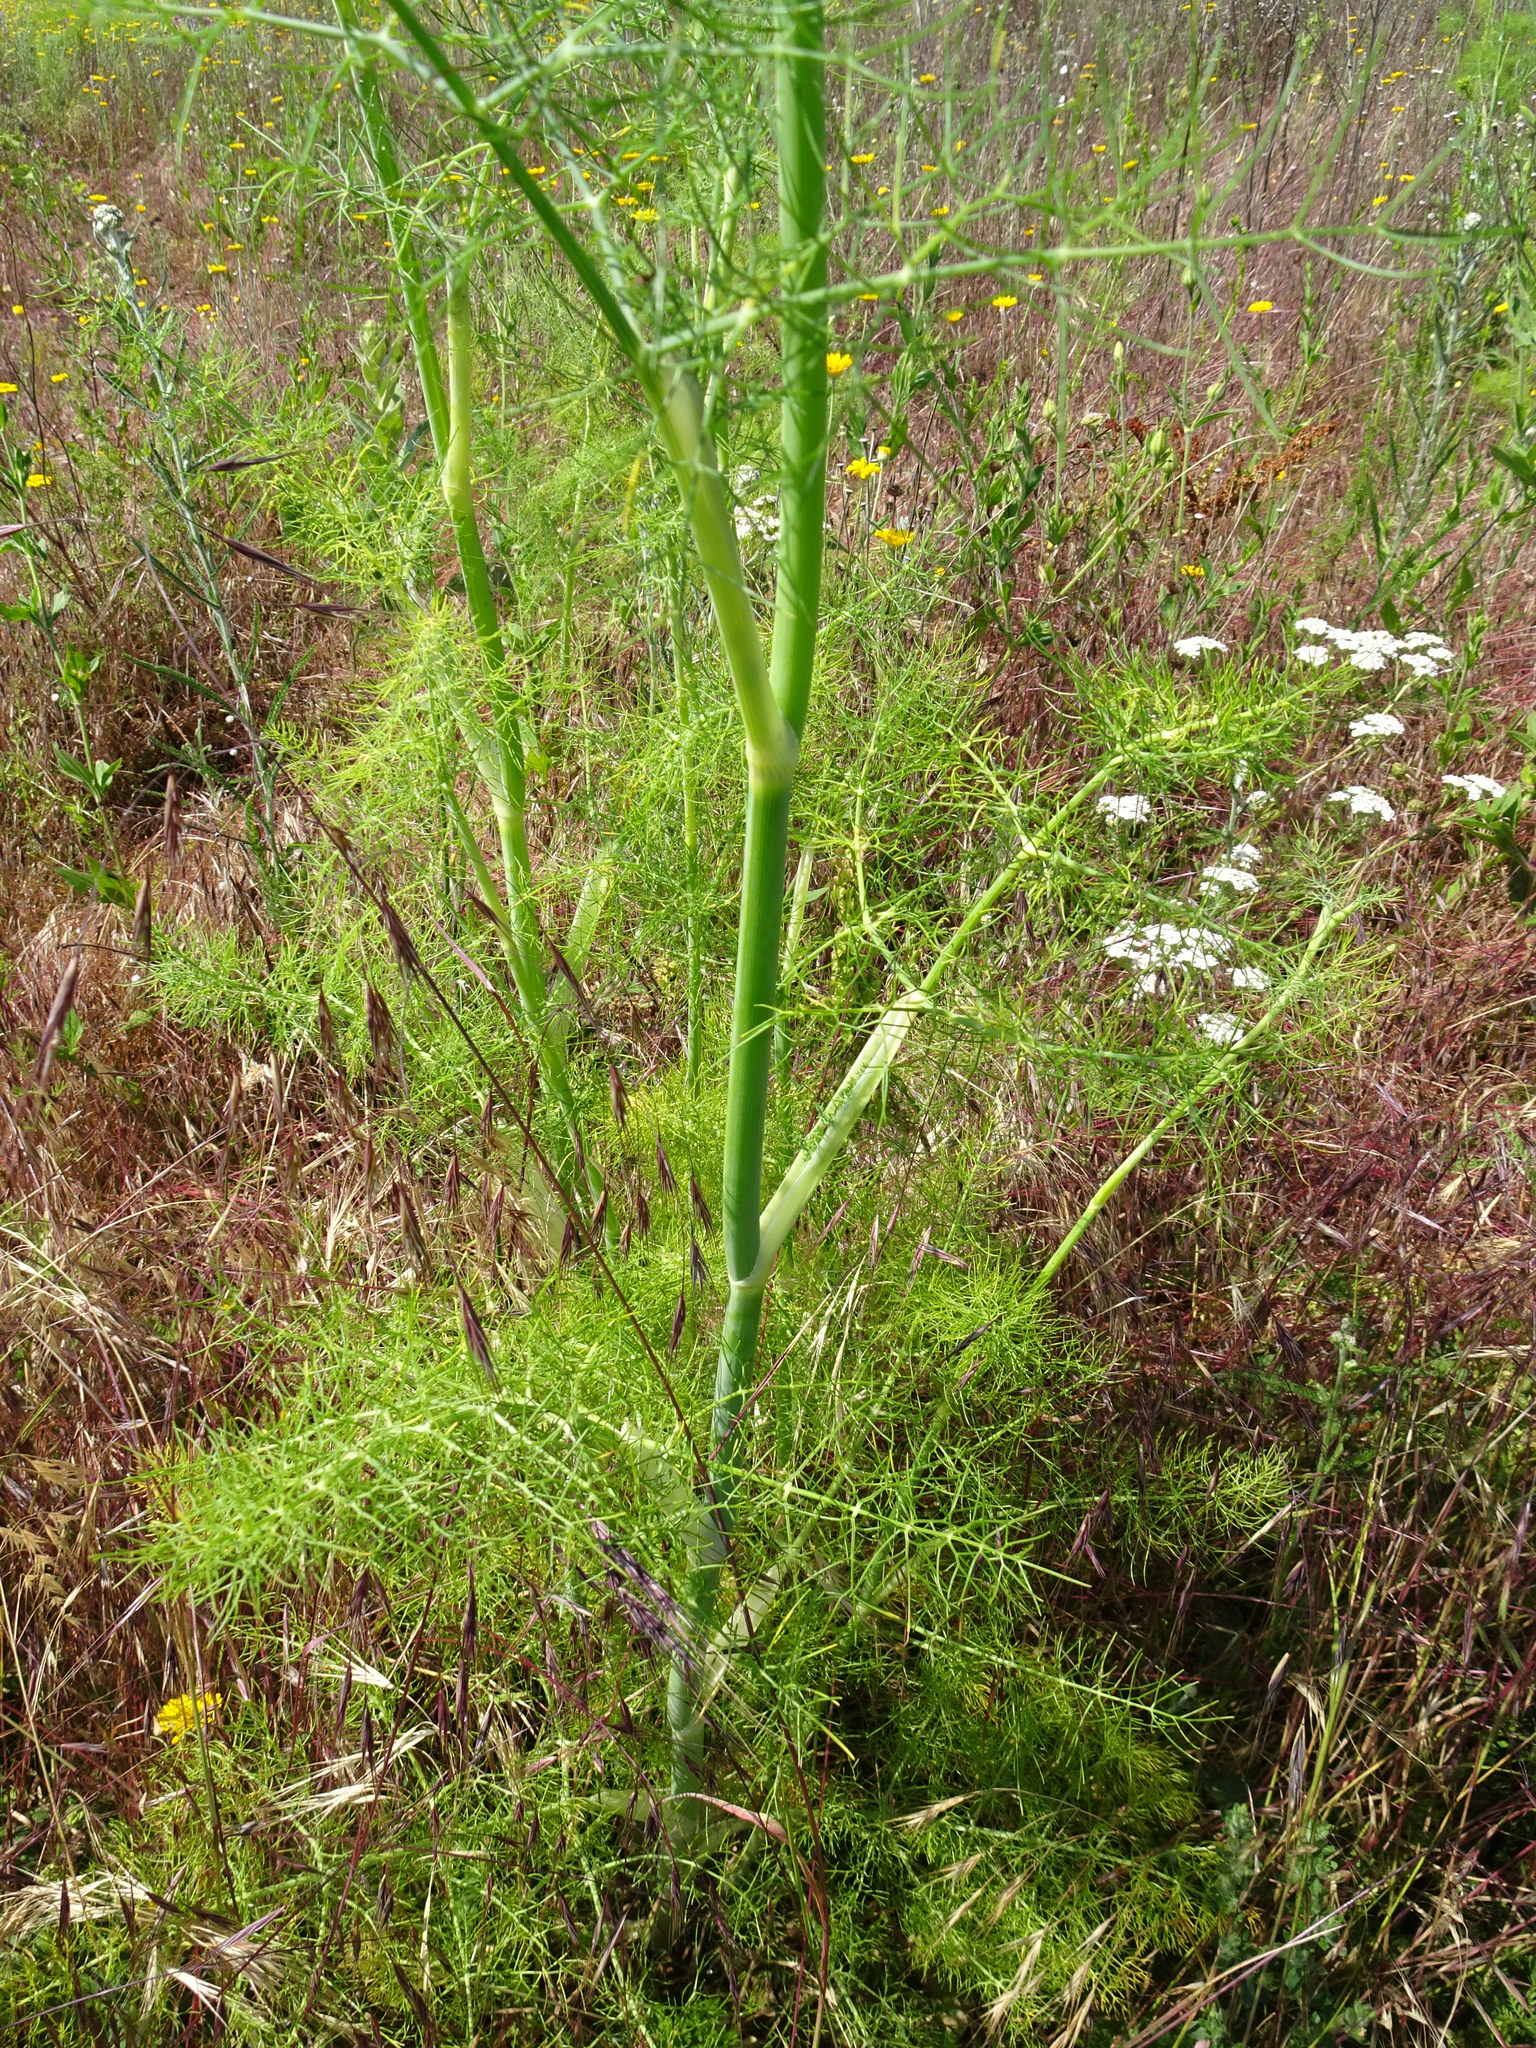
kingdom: Plantae
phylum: Tracheophyta
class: Magnoliopsida
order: Apiales
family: Apiaceae
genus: Foeniculum
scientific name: Foeniculum vulgare
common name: Fennel
